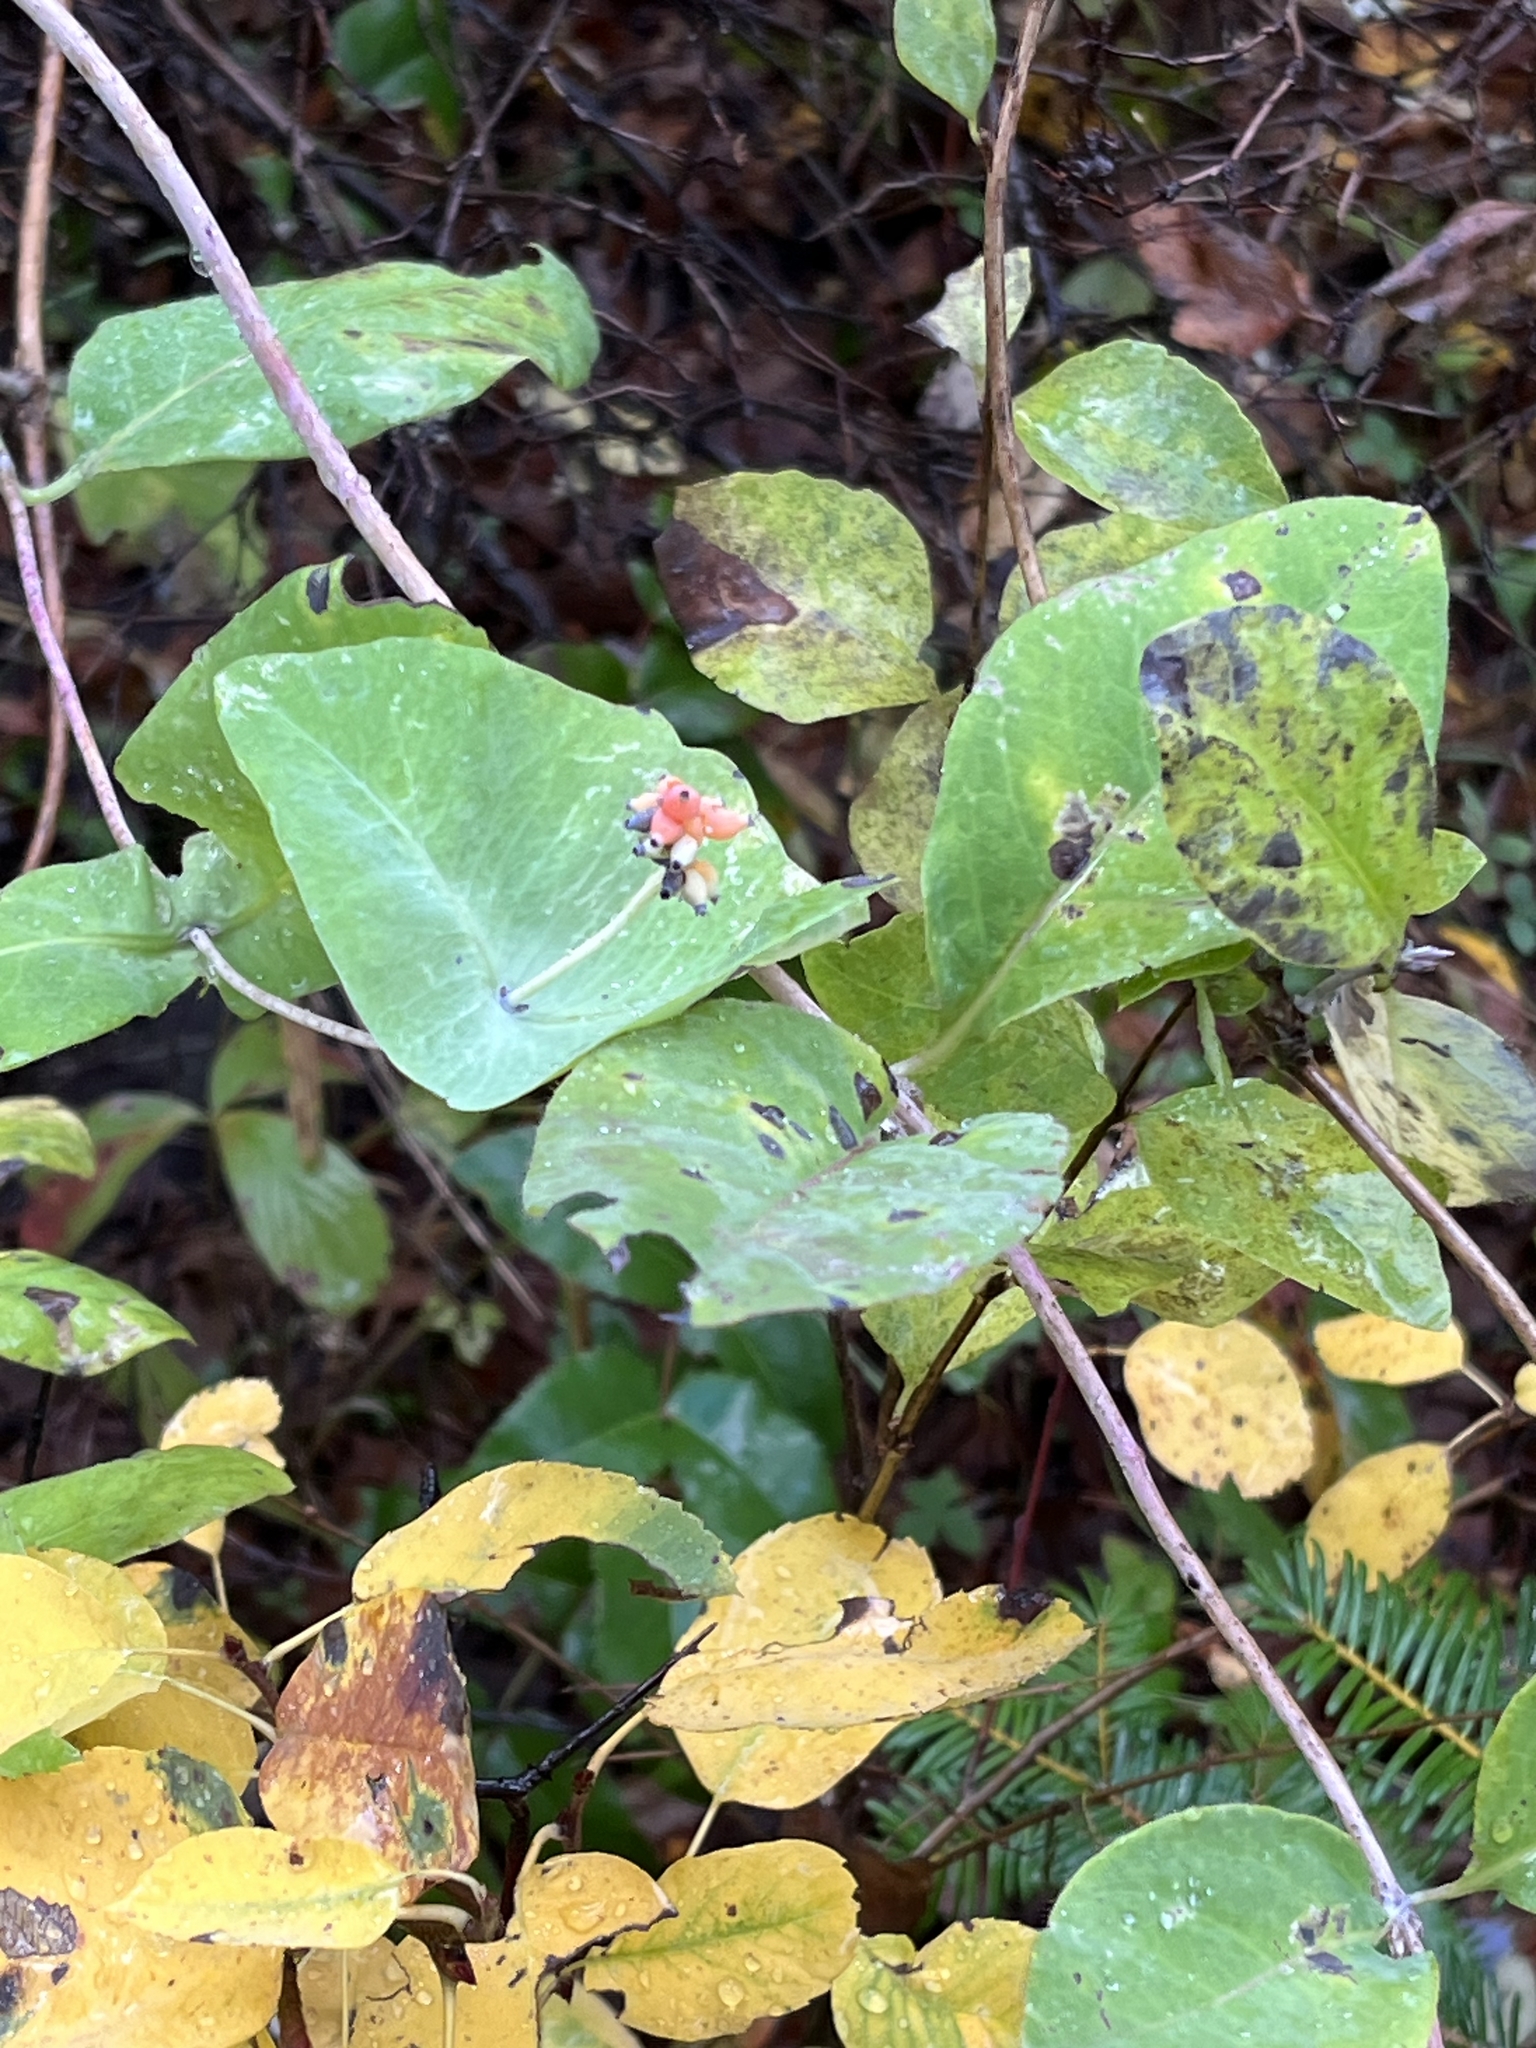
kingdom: Plantae
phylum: Tracheophyta
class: Magnoliopsida
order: Dipsacales
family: Caprifoliaceae
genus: Lonicera
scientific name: Lonicera ciliosa
